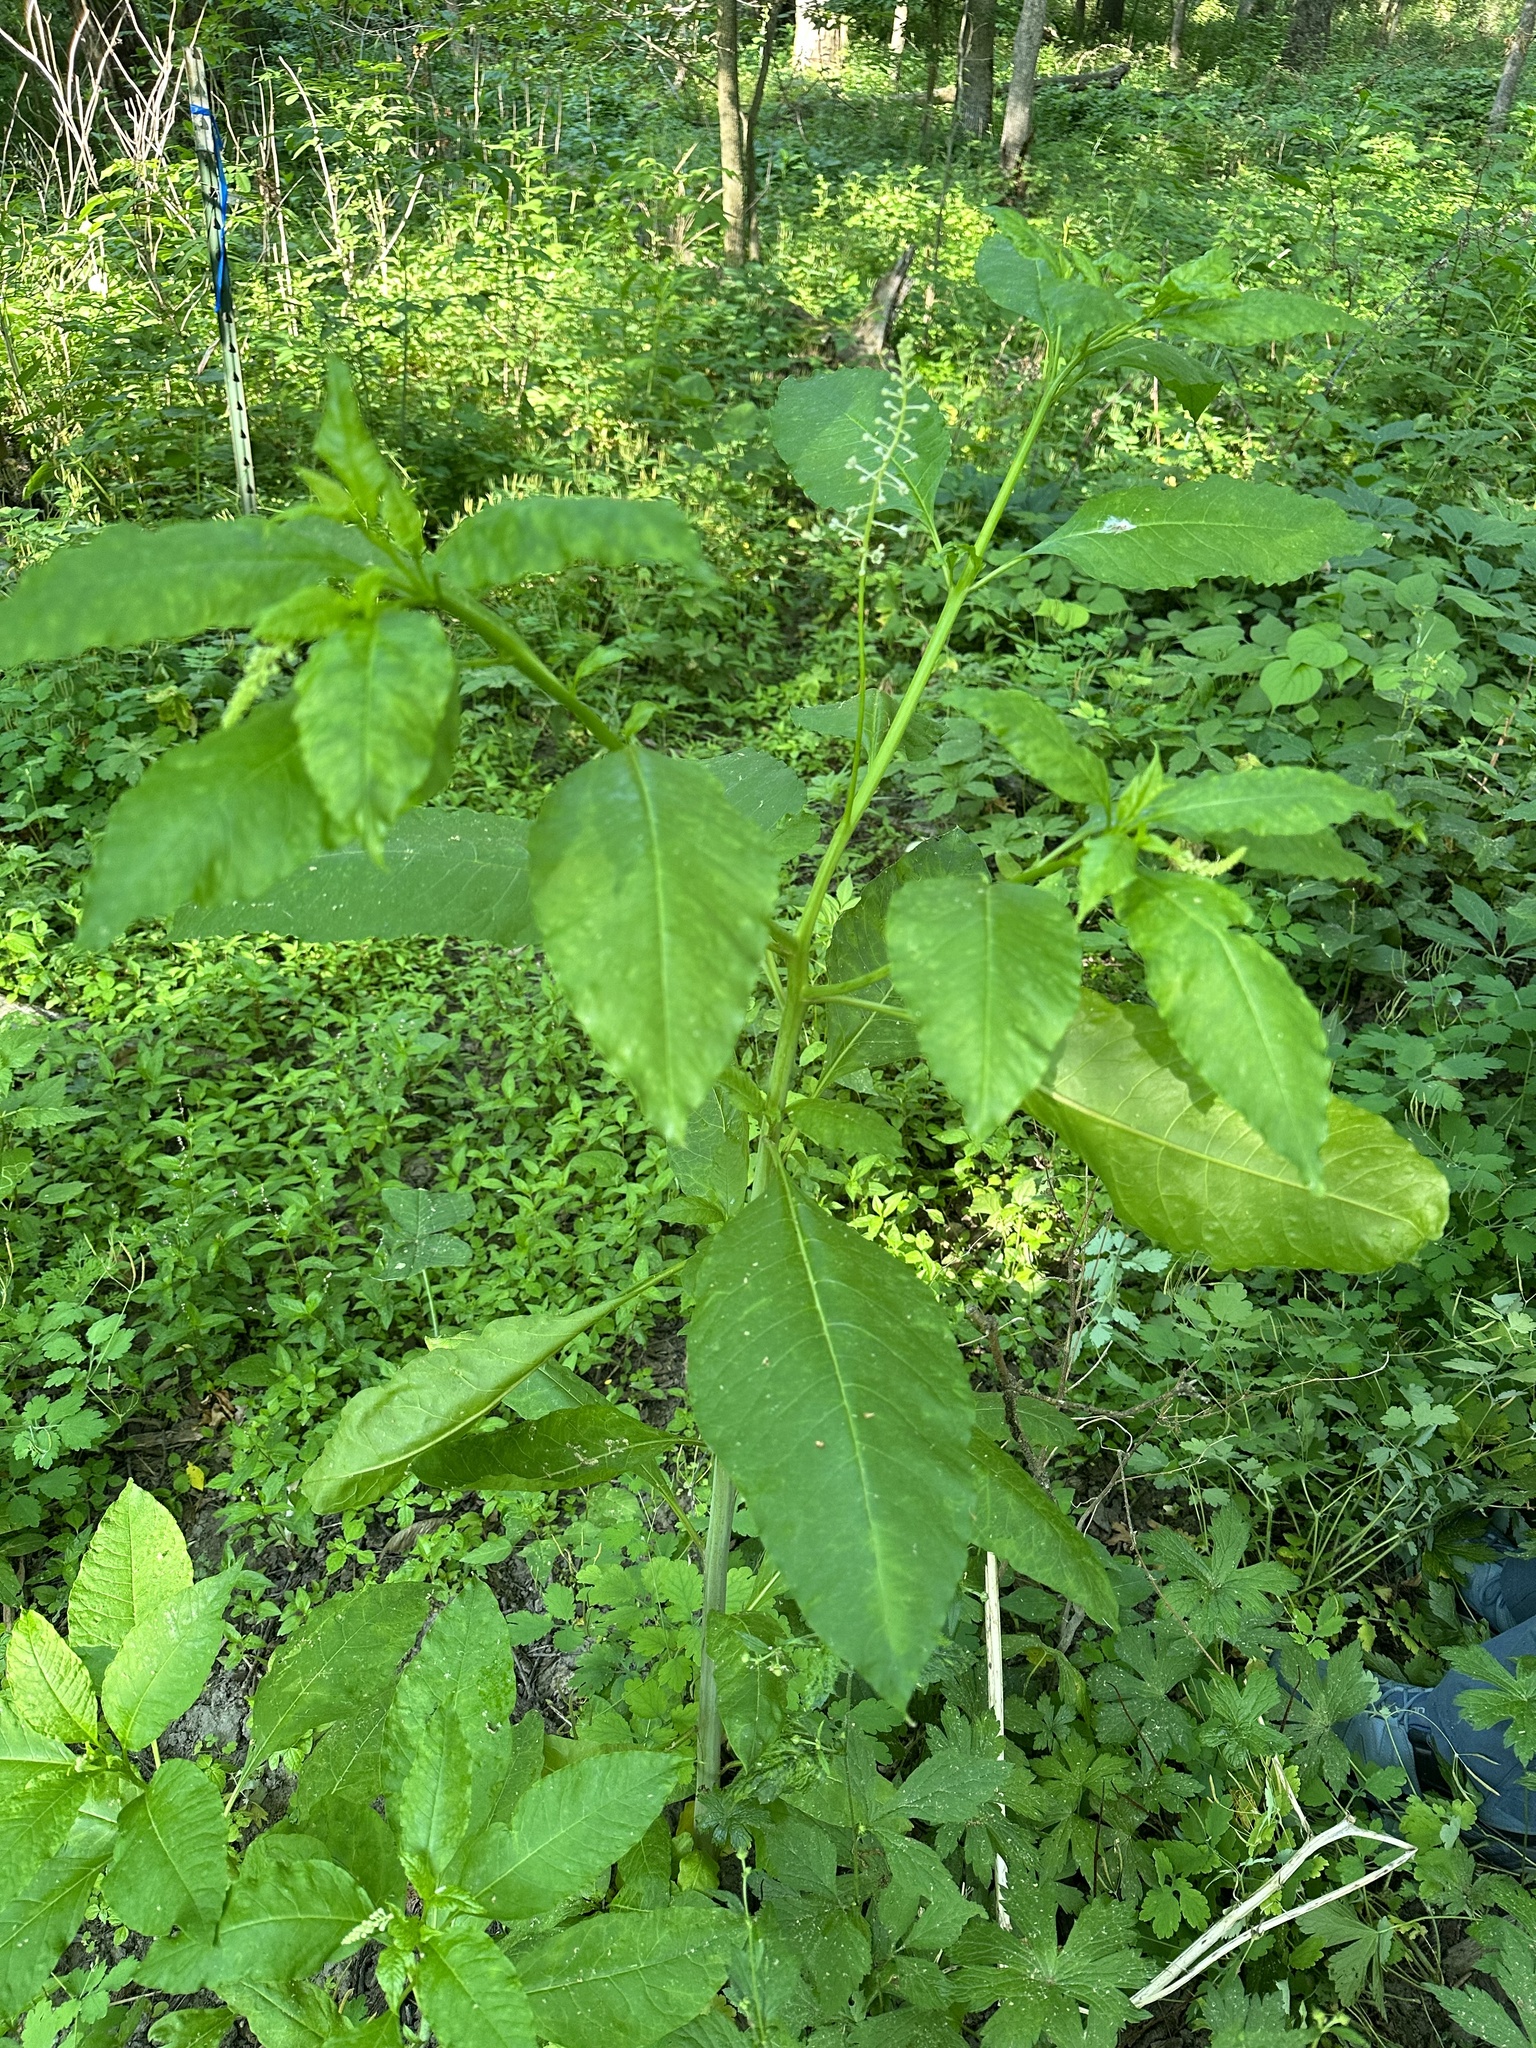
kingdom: Plantae
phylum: Tracheophyta
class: Magnoliopsida
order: Caryophyllales
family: Phytolaccaceae
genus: Phytolacca
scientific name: Phytolacca americana
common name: American pokeweed
